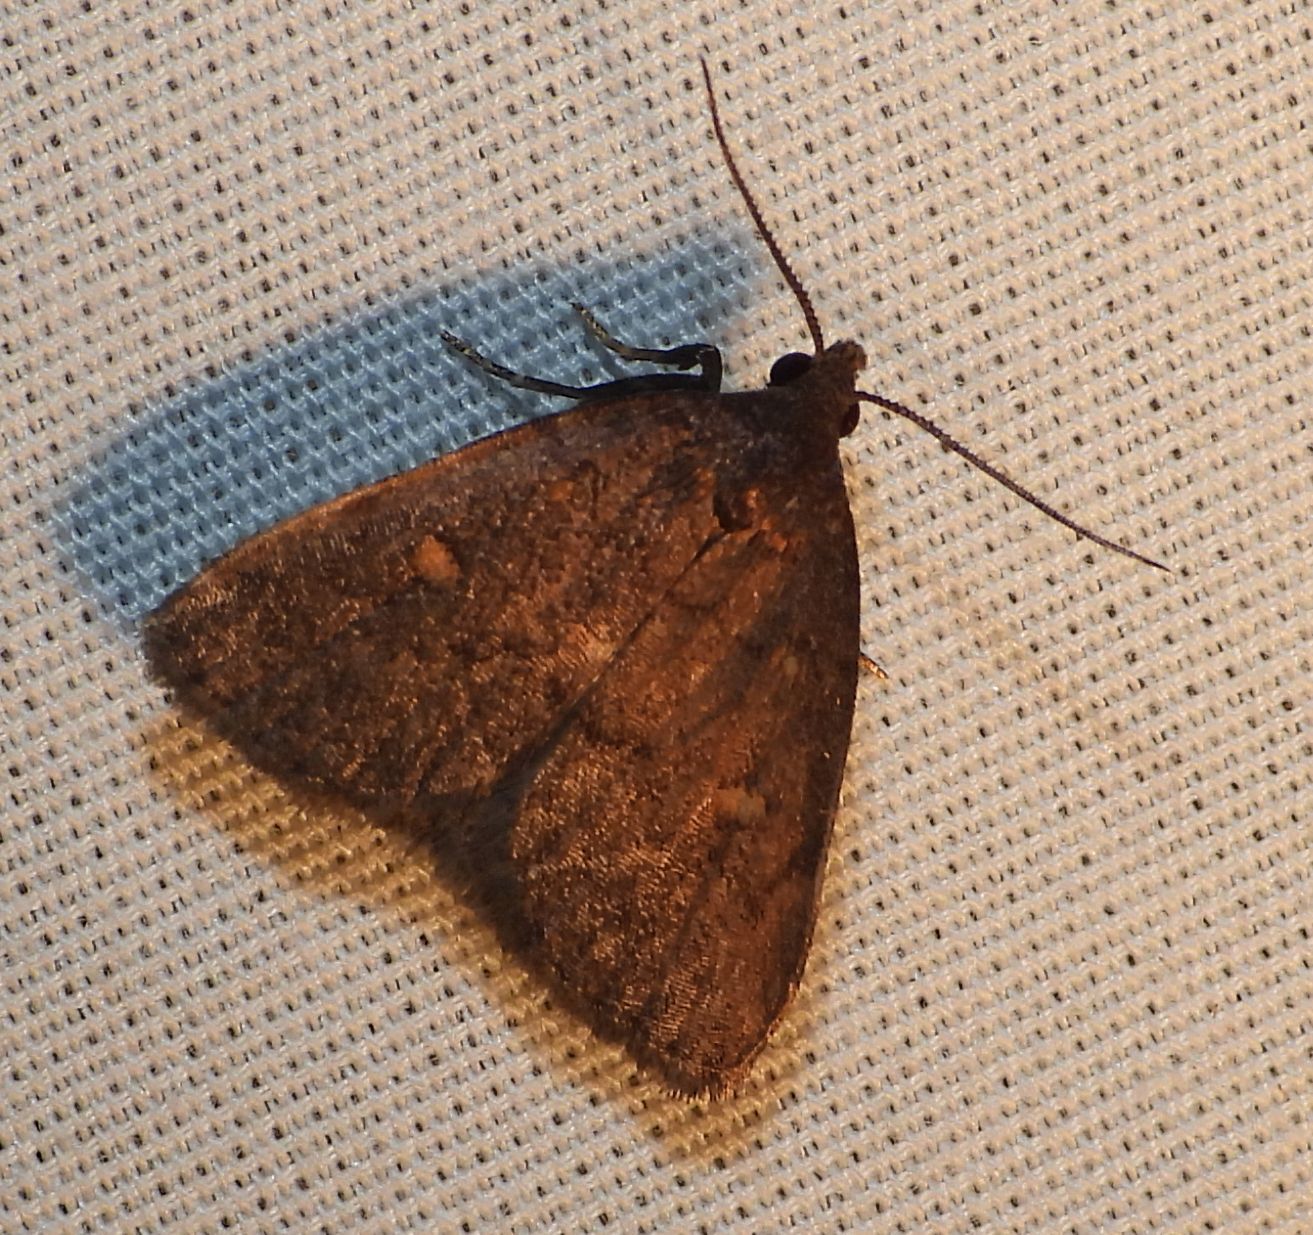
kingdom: Animalia
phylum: Arthropoda
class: Insecta
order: Lepidoptera
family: Erebidae
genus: Idia
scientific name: Idia diminuendis
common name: Orange-spotted idia moth
